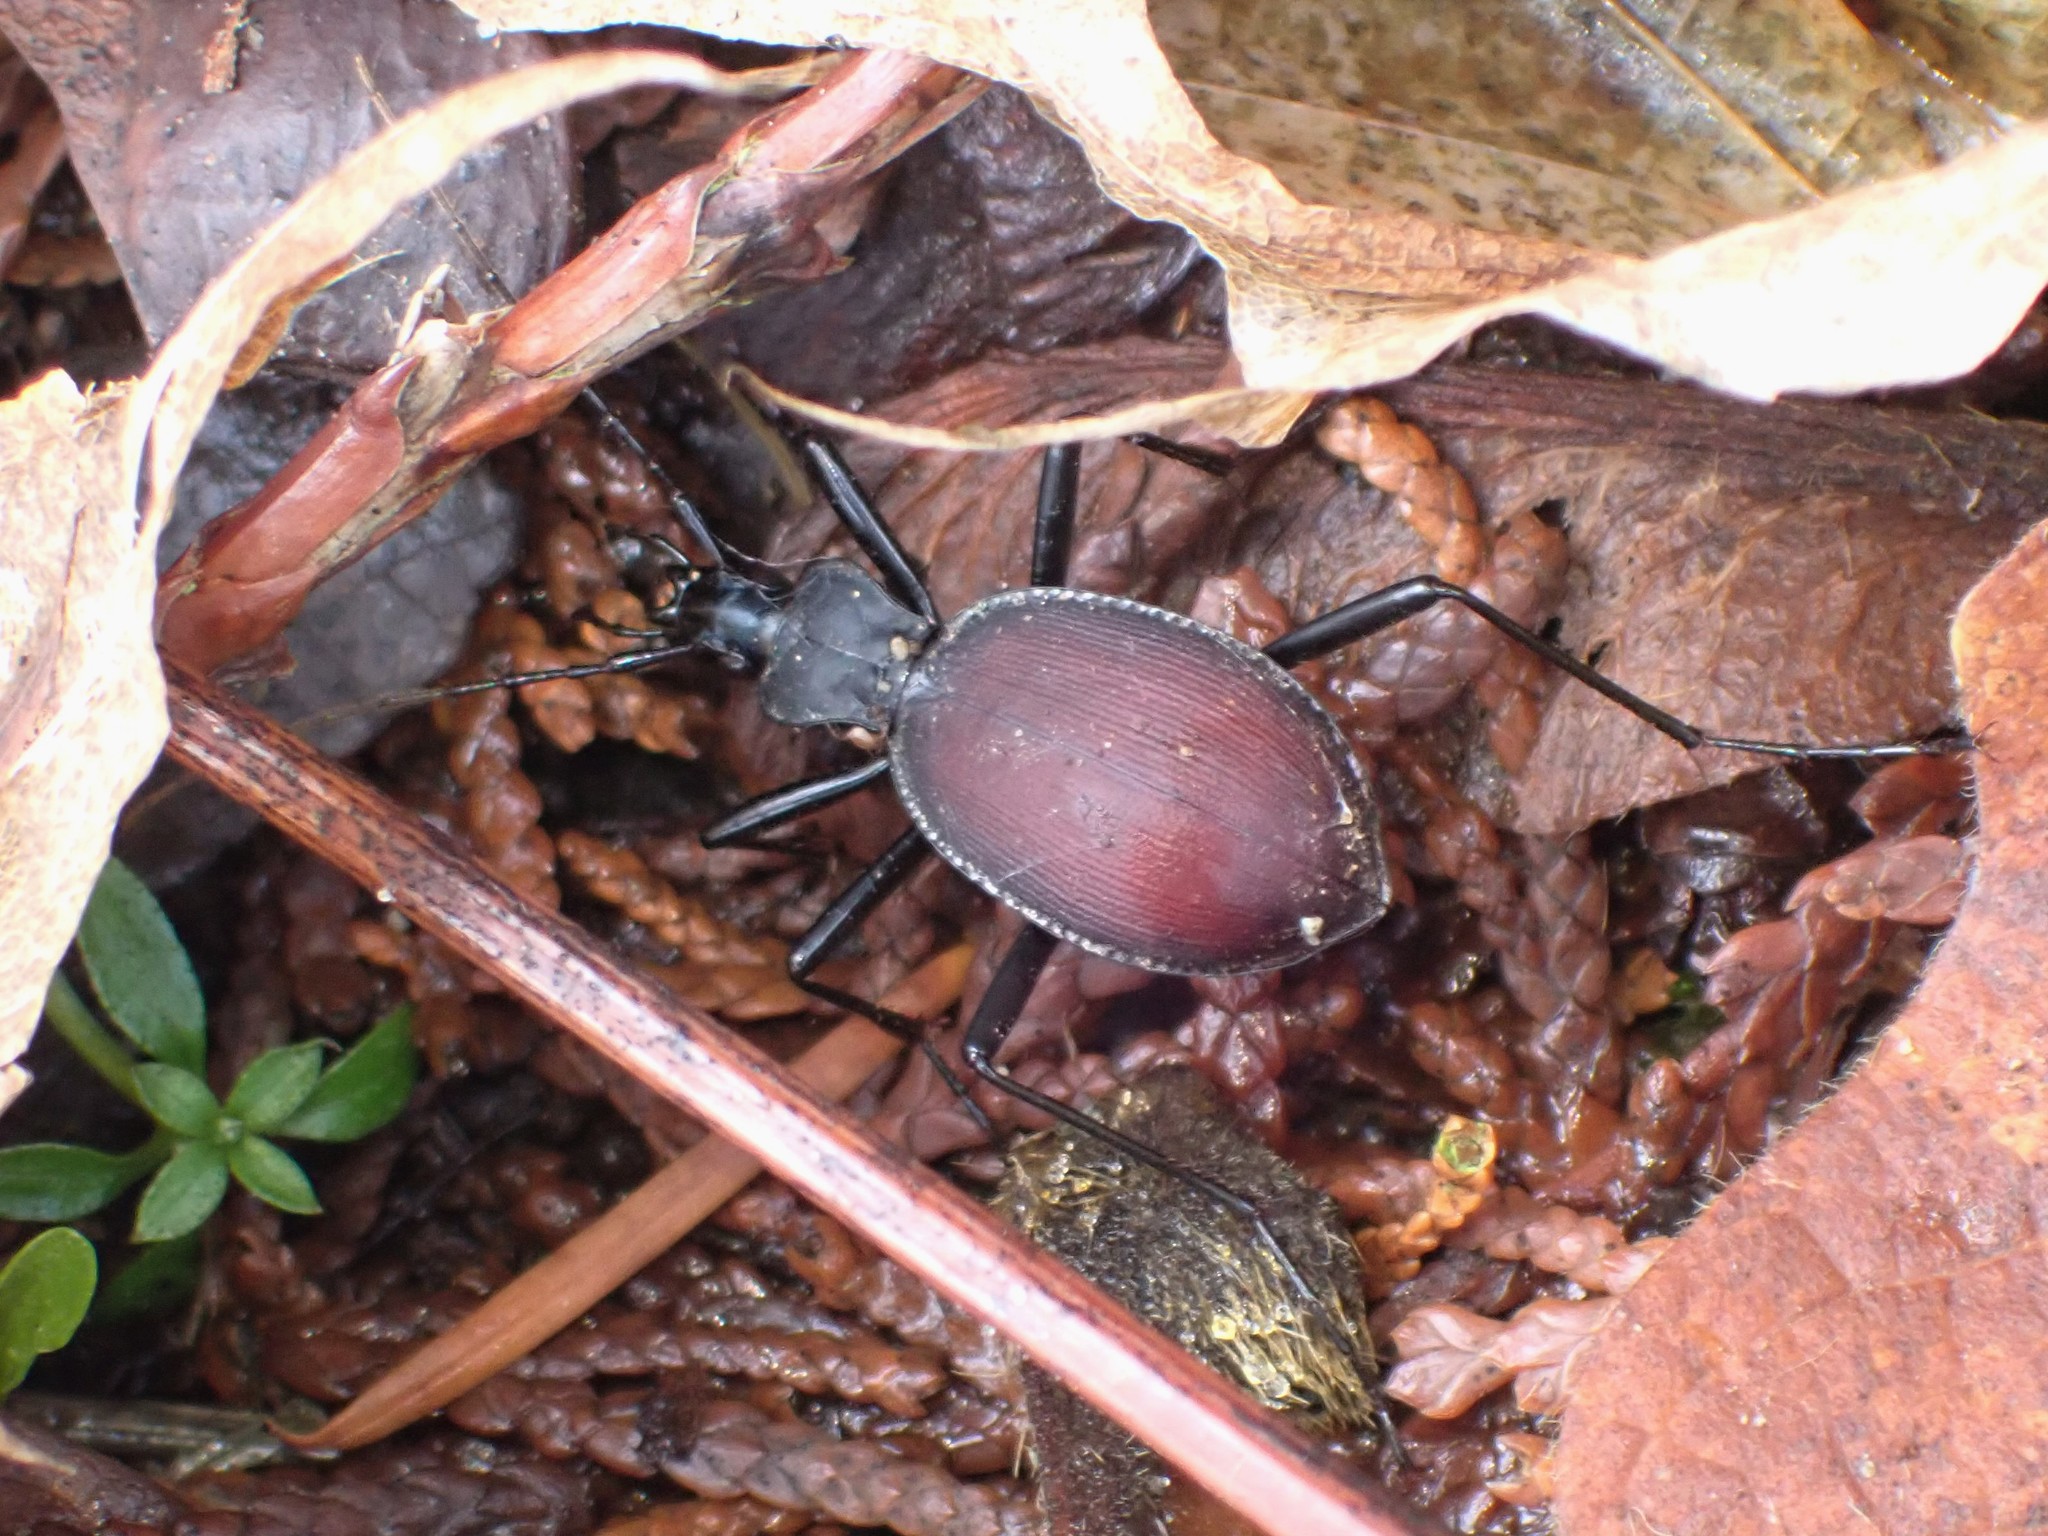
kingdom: Animalia
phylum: Arthropoda
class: Insecta
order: Coleoptera
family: Carabidae
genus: Scaphinotus
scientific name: Scaphinotus angusticollis
